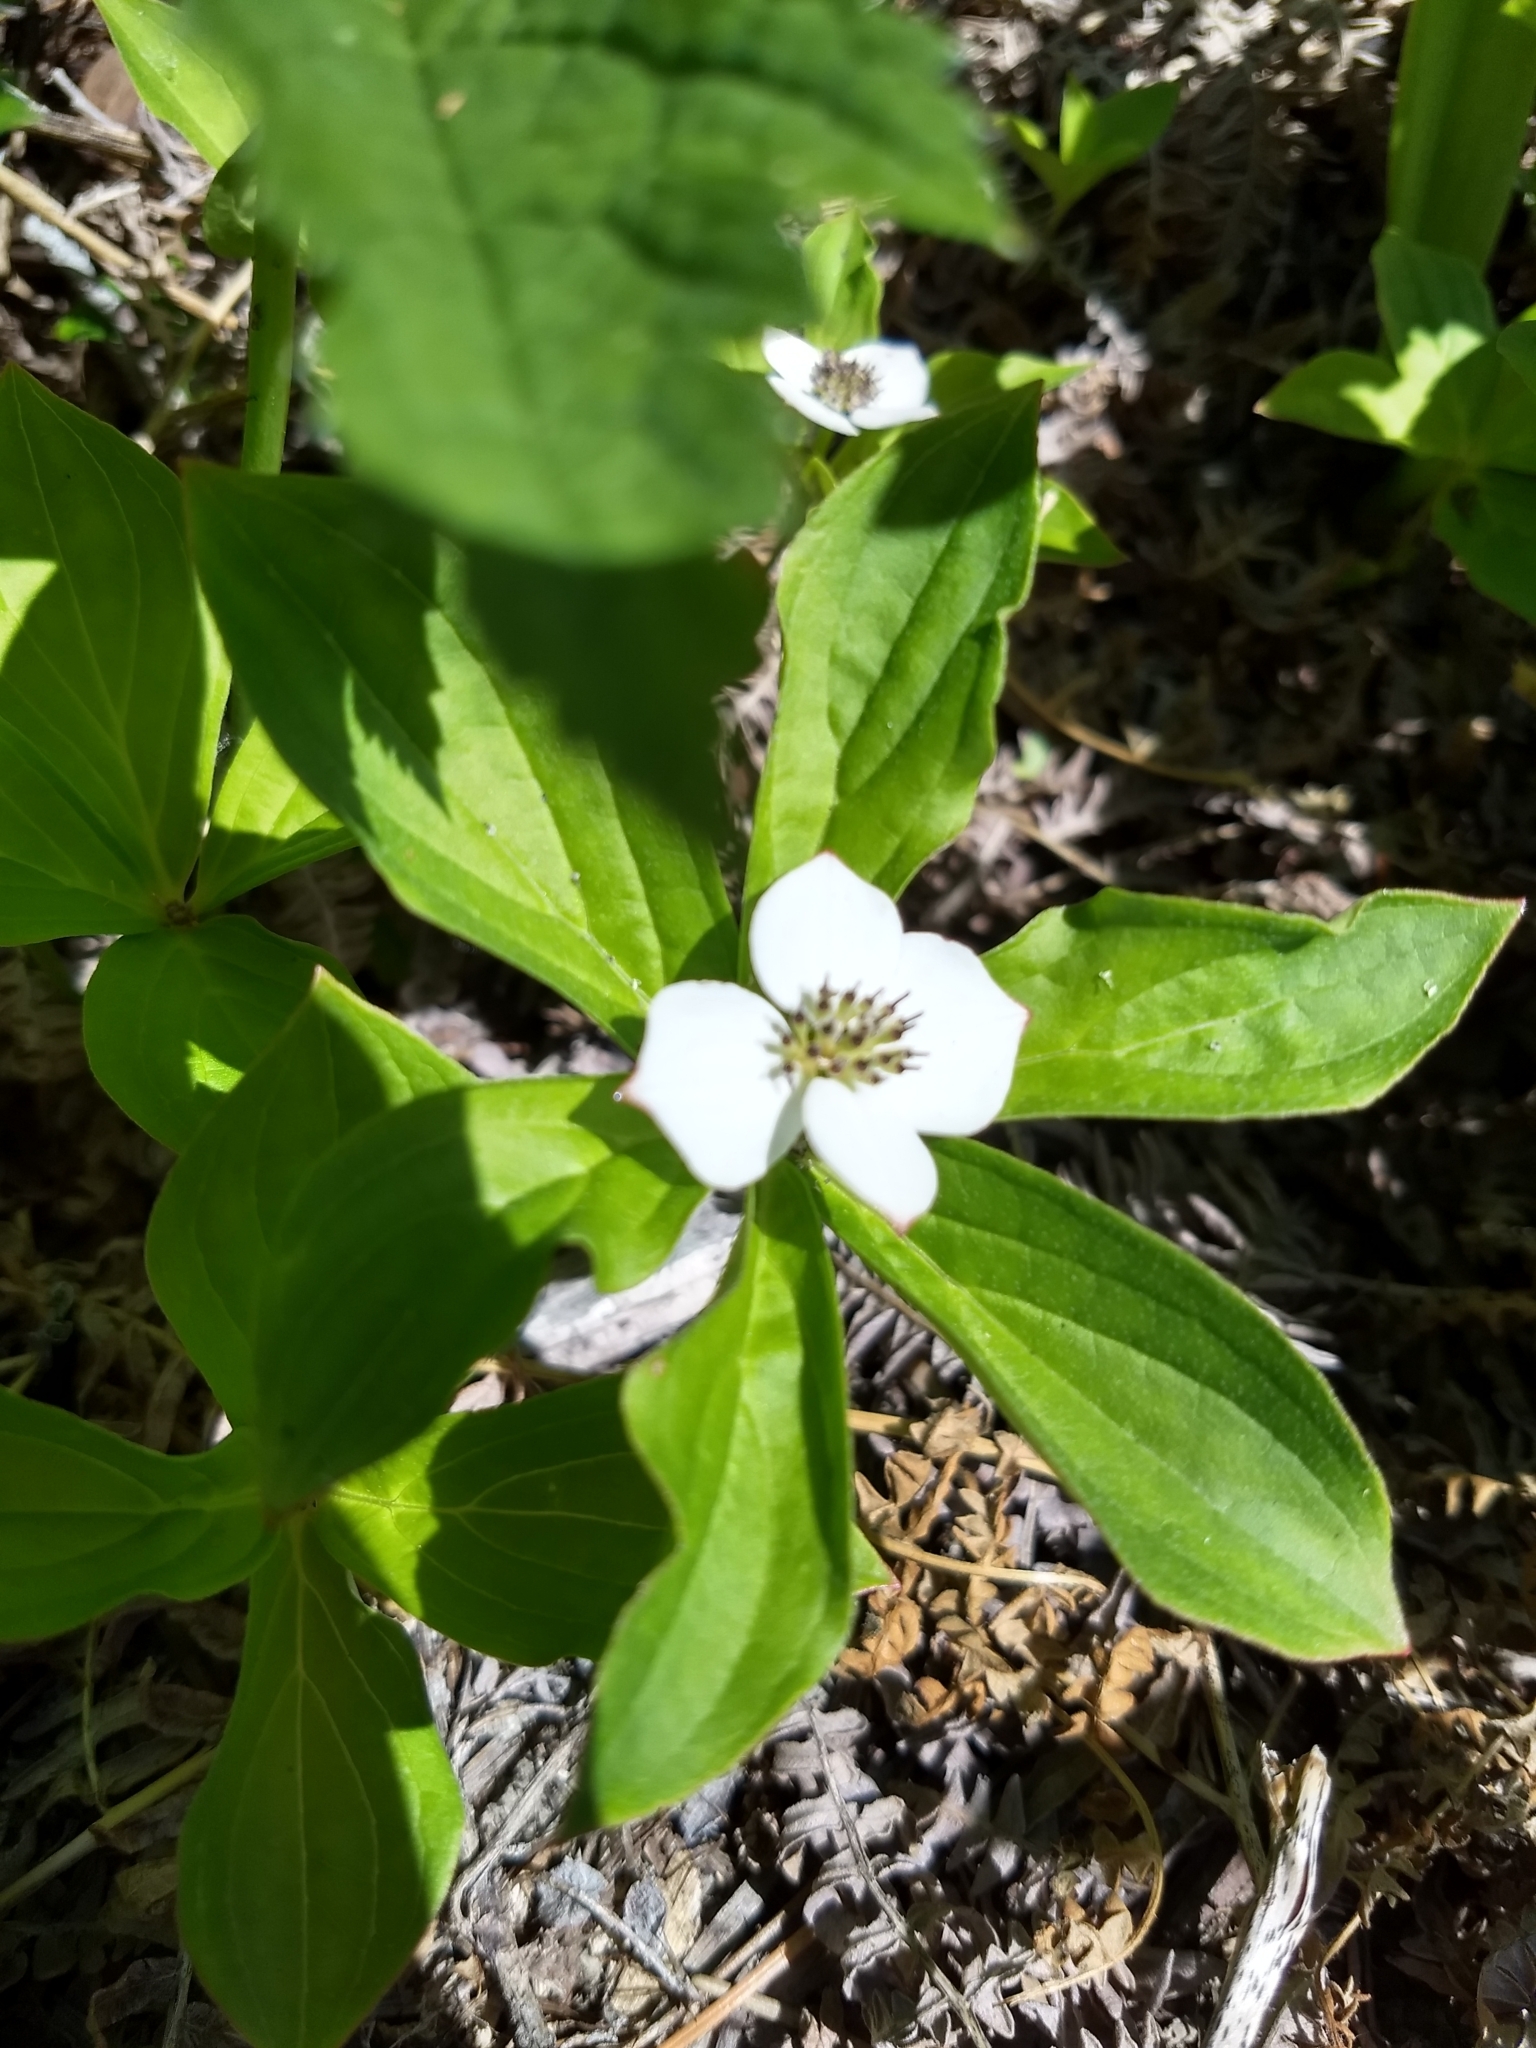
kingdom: Plantae
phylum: Tracheophyta
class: Magnoliopsida
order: Cornales
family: Cornaceae
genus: Cornus
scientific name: Cornus unalaschkensis
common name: Alaska bunchberry
